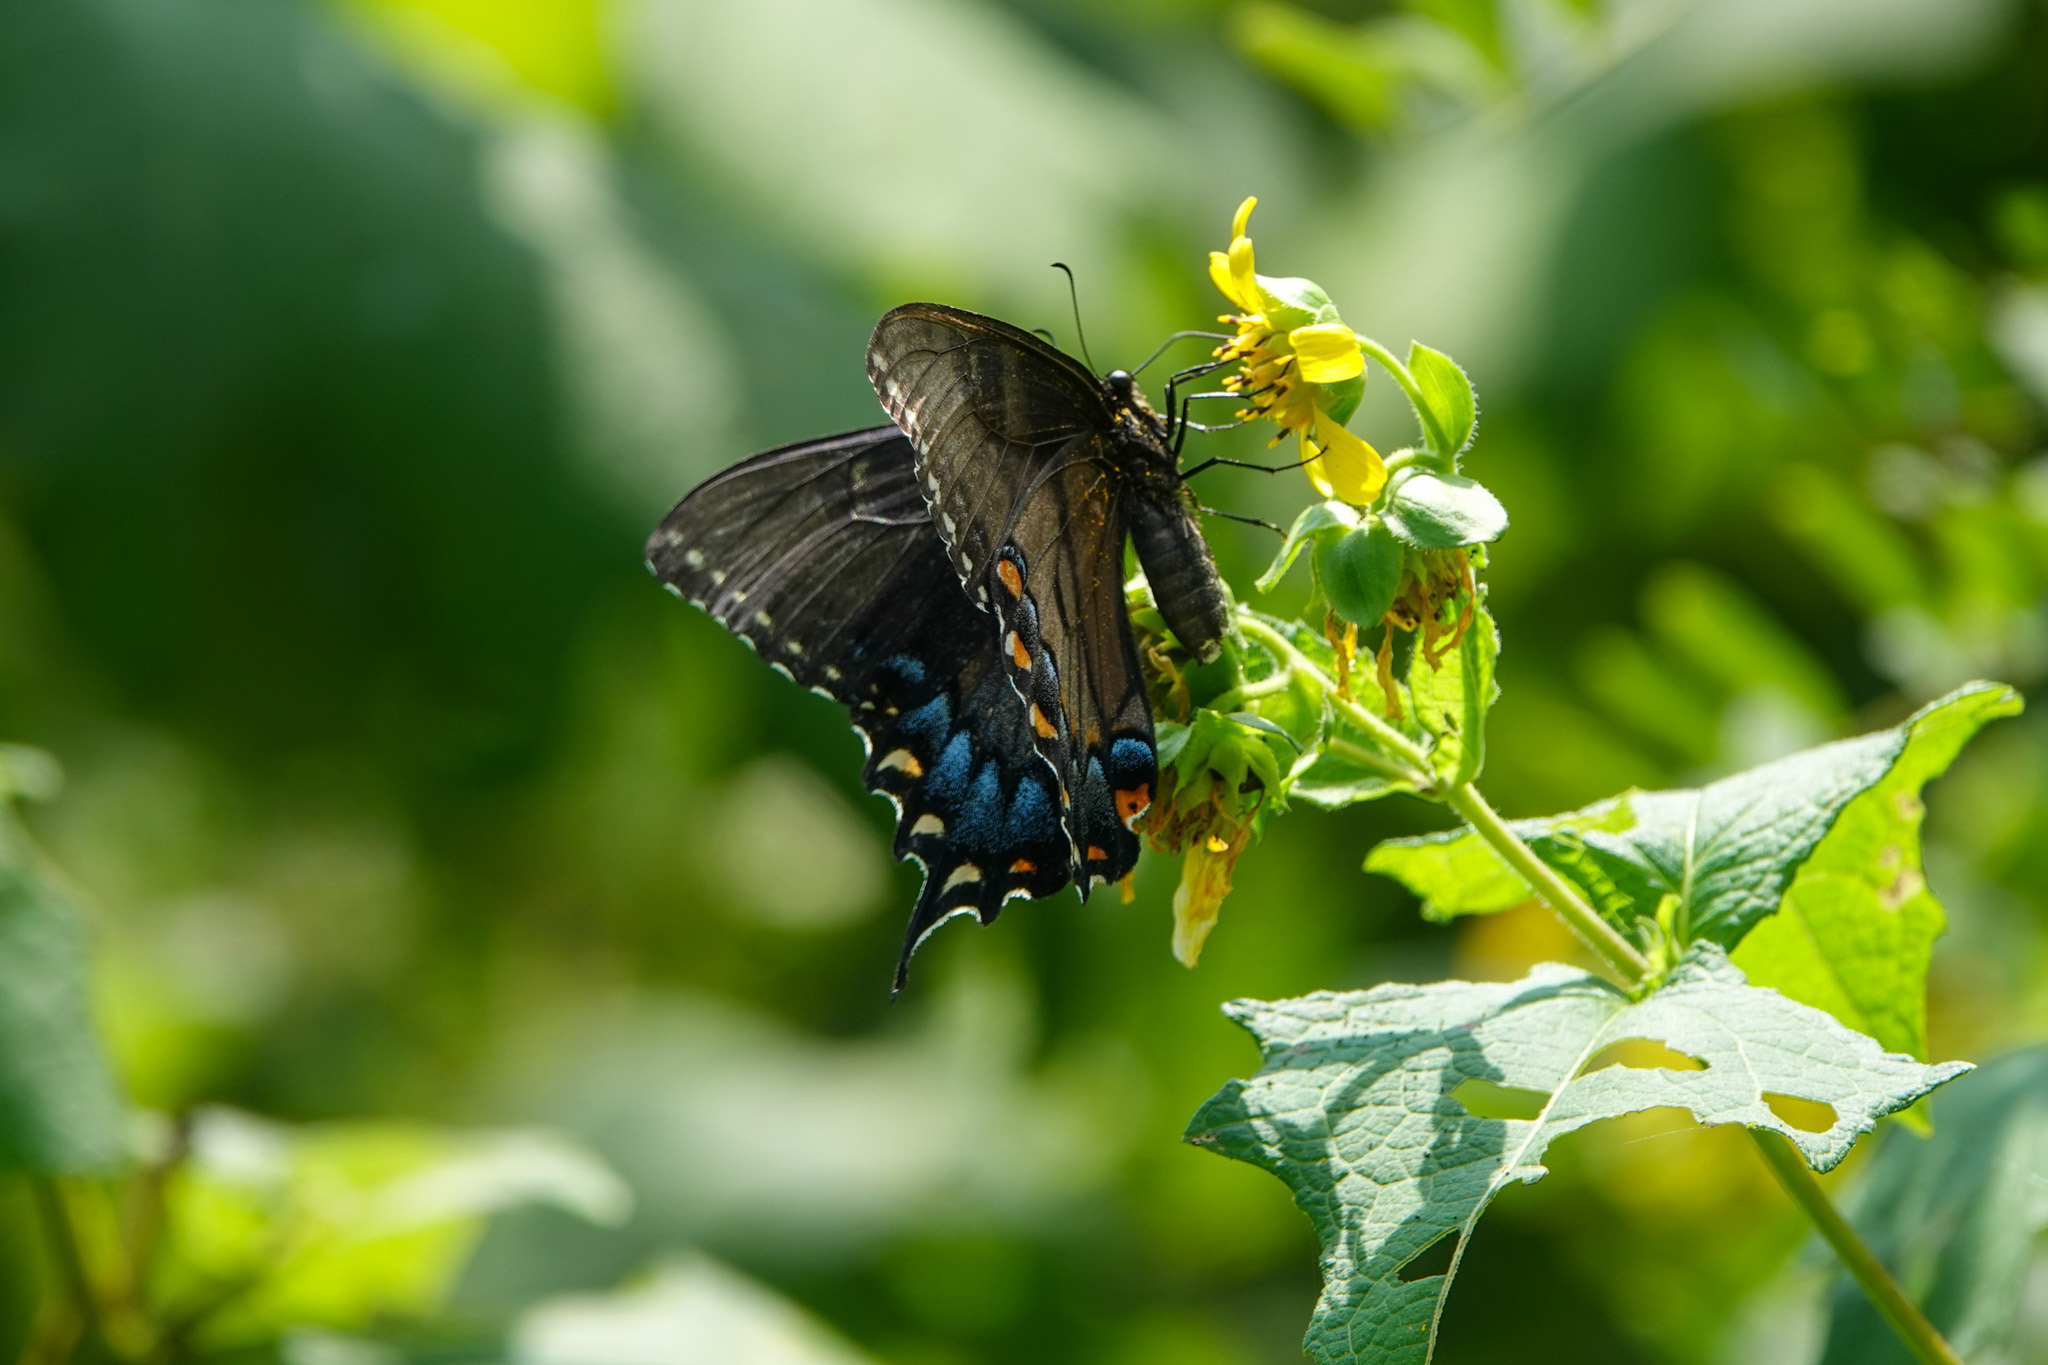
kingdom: Animalia
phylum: Arthropoda
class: Insecta
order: Lepidoptera
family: Papilionidae
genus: Papilio
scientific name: Papilio glaucus
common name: Tiger swallowtail
